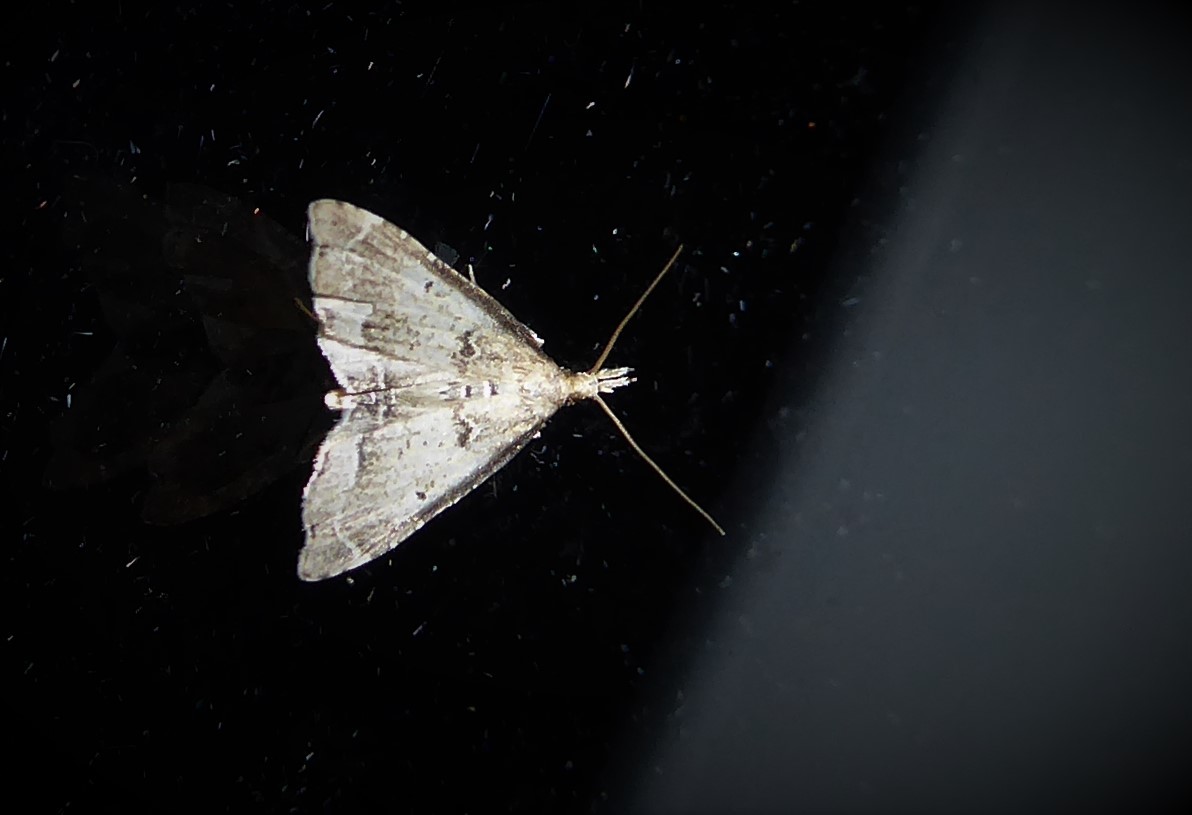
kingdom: Animalia
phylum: Arthropoda
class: Insecta
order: Lepidoptera
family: Crambidae
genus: Diplopseustis
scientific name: Diplopseustis perieresalis
